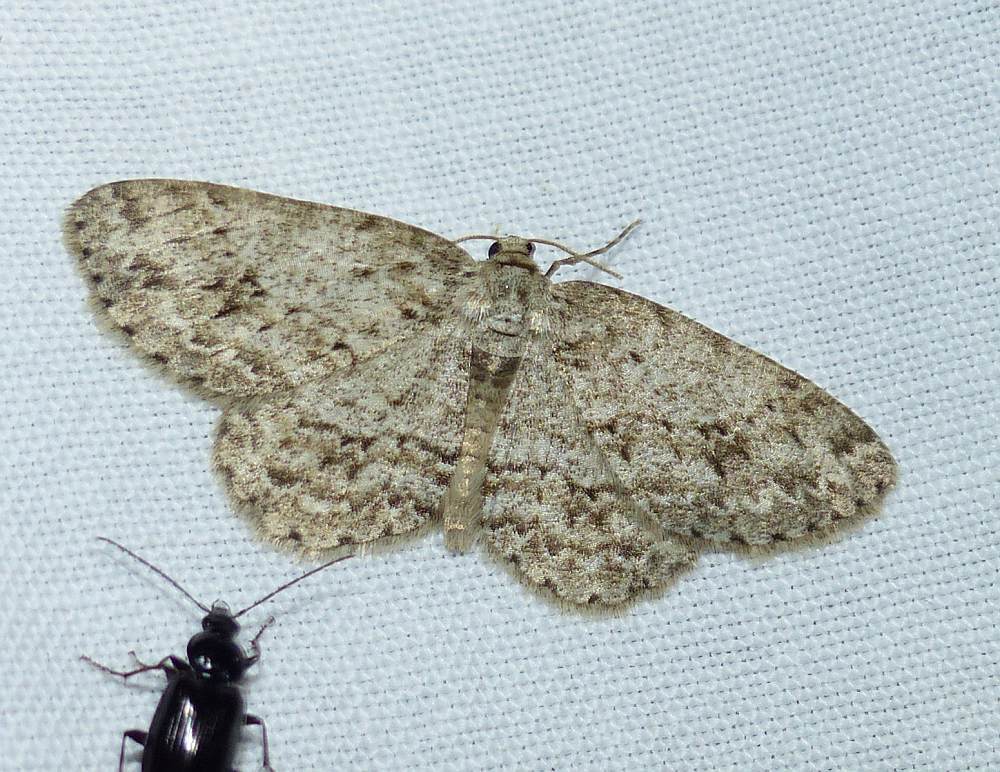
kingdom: Animalia
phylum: Arthropoda
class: Insecta
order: Lepidoptera
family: Geometridae
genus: Ectropis
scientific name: Ectropis crepuscularia
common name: Engrailed
